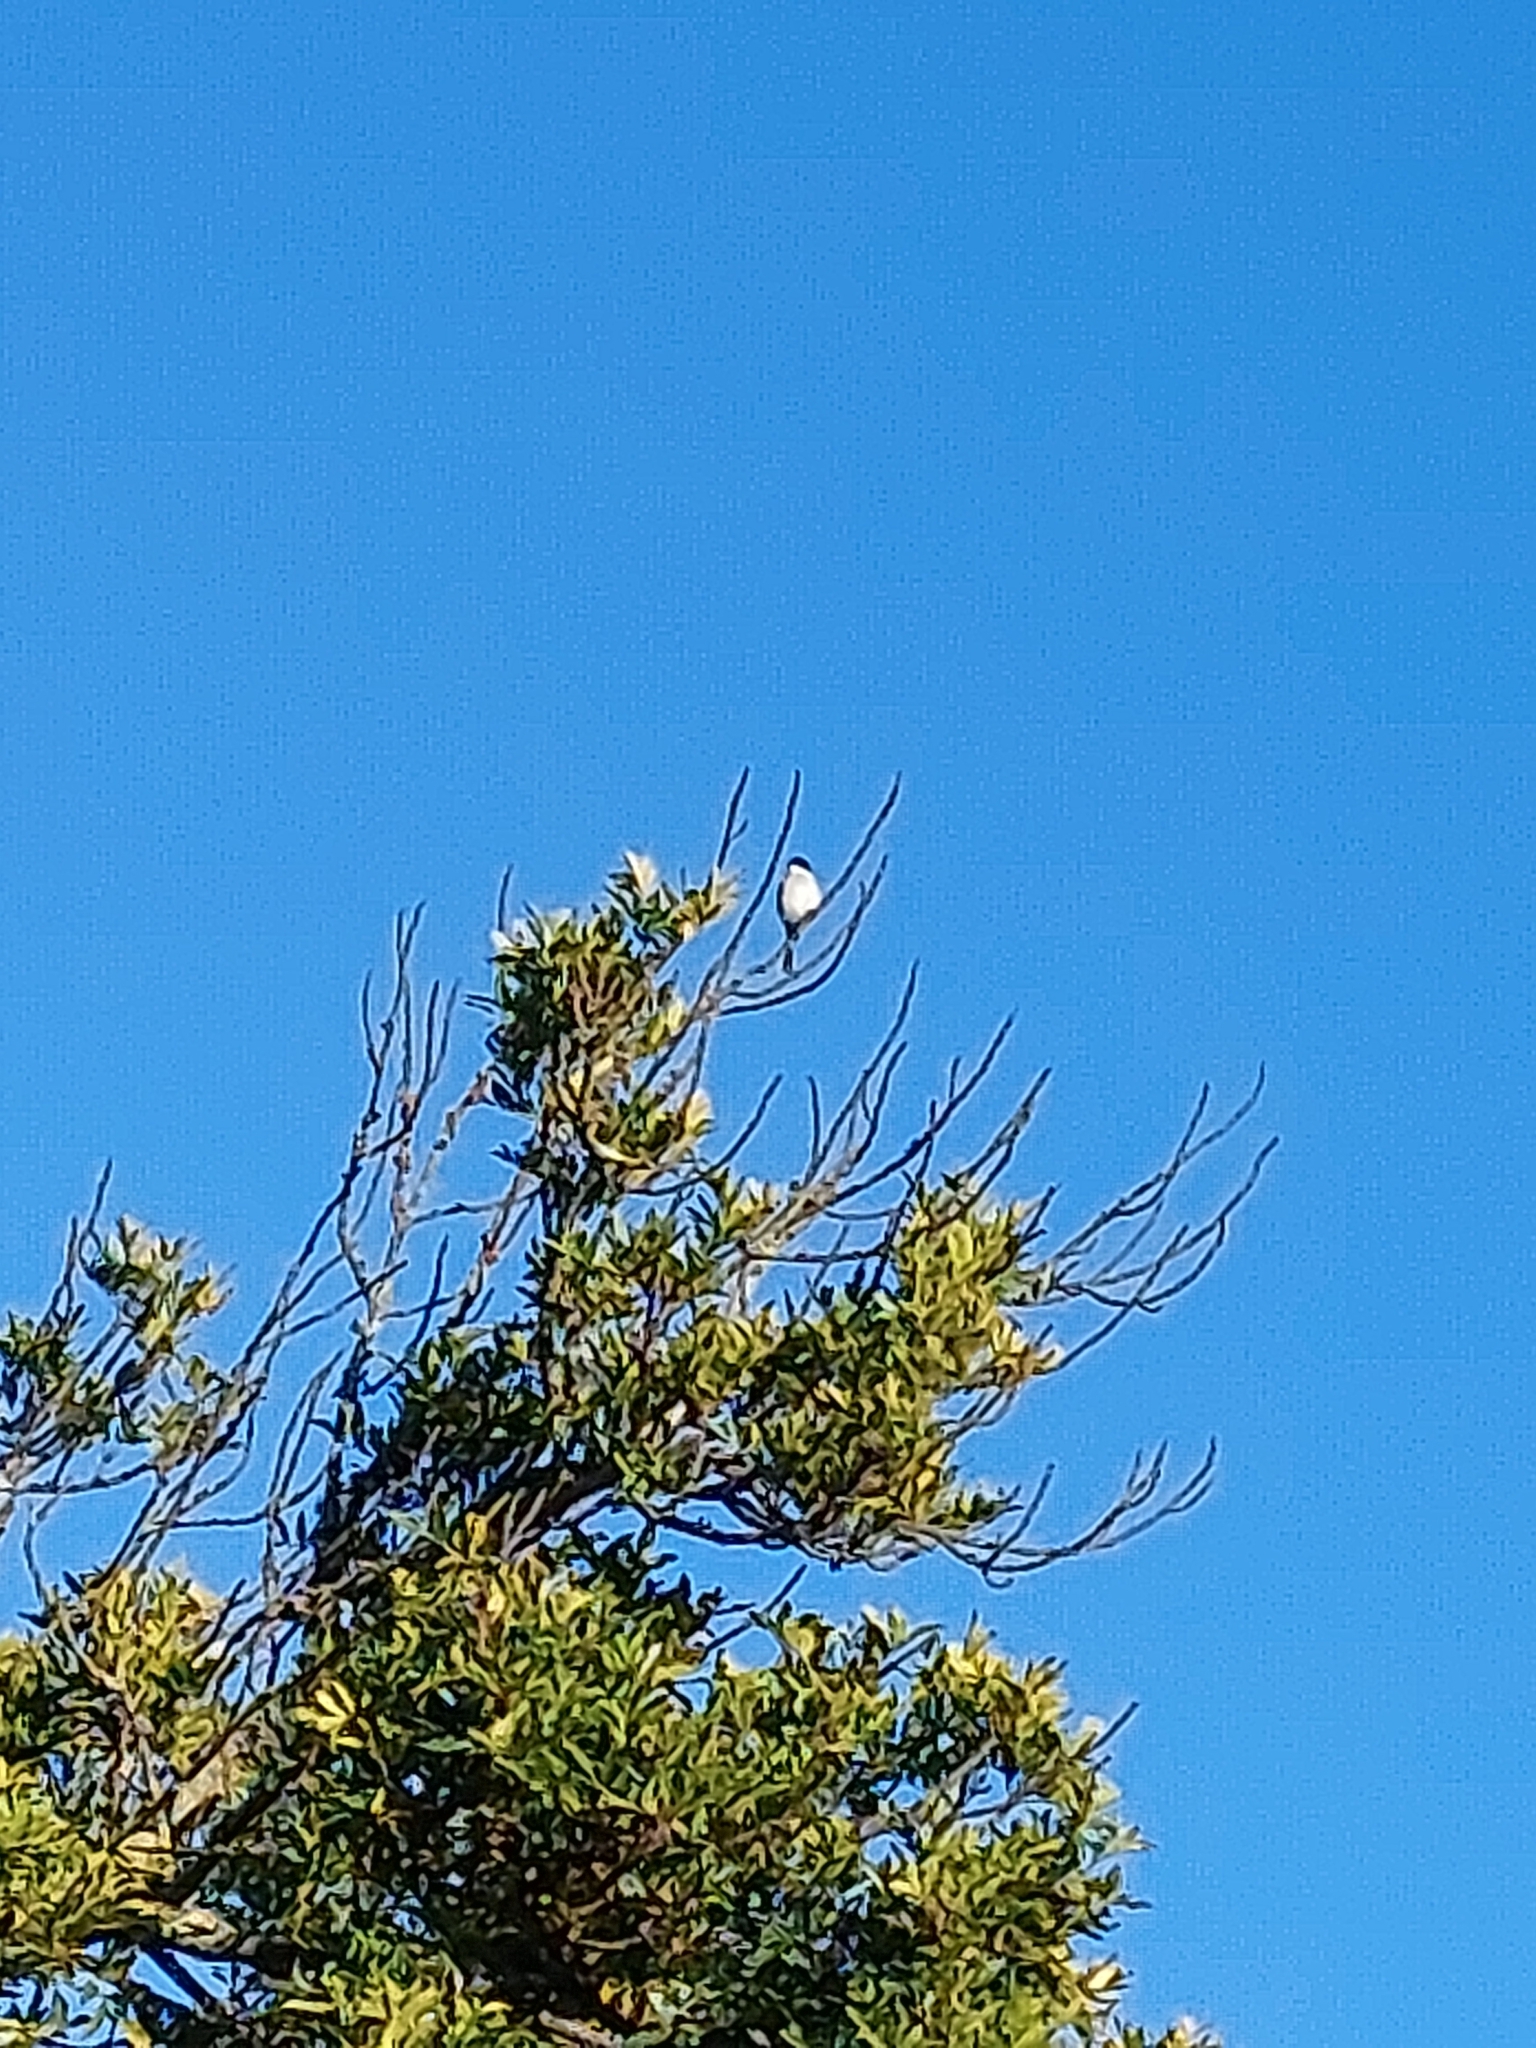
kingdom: Animalia
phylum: Chordata
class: Aves
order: Passeriformes
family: Muscicapidae
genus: Sigelus
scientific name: Sigelus silens
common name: Fiscal flycatcher
